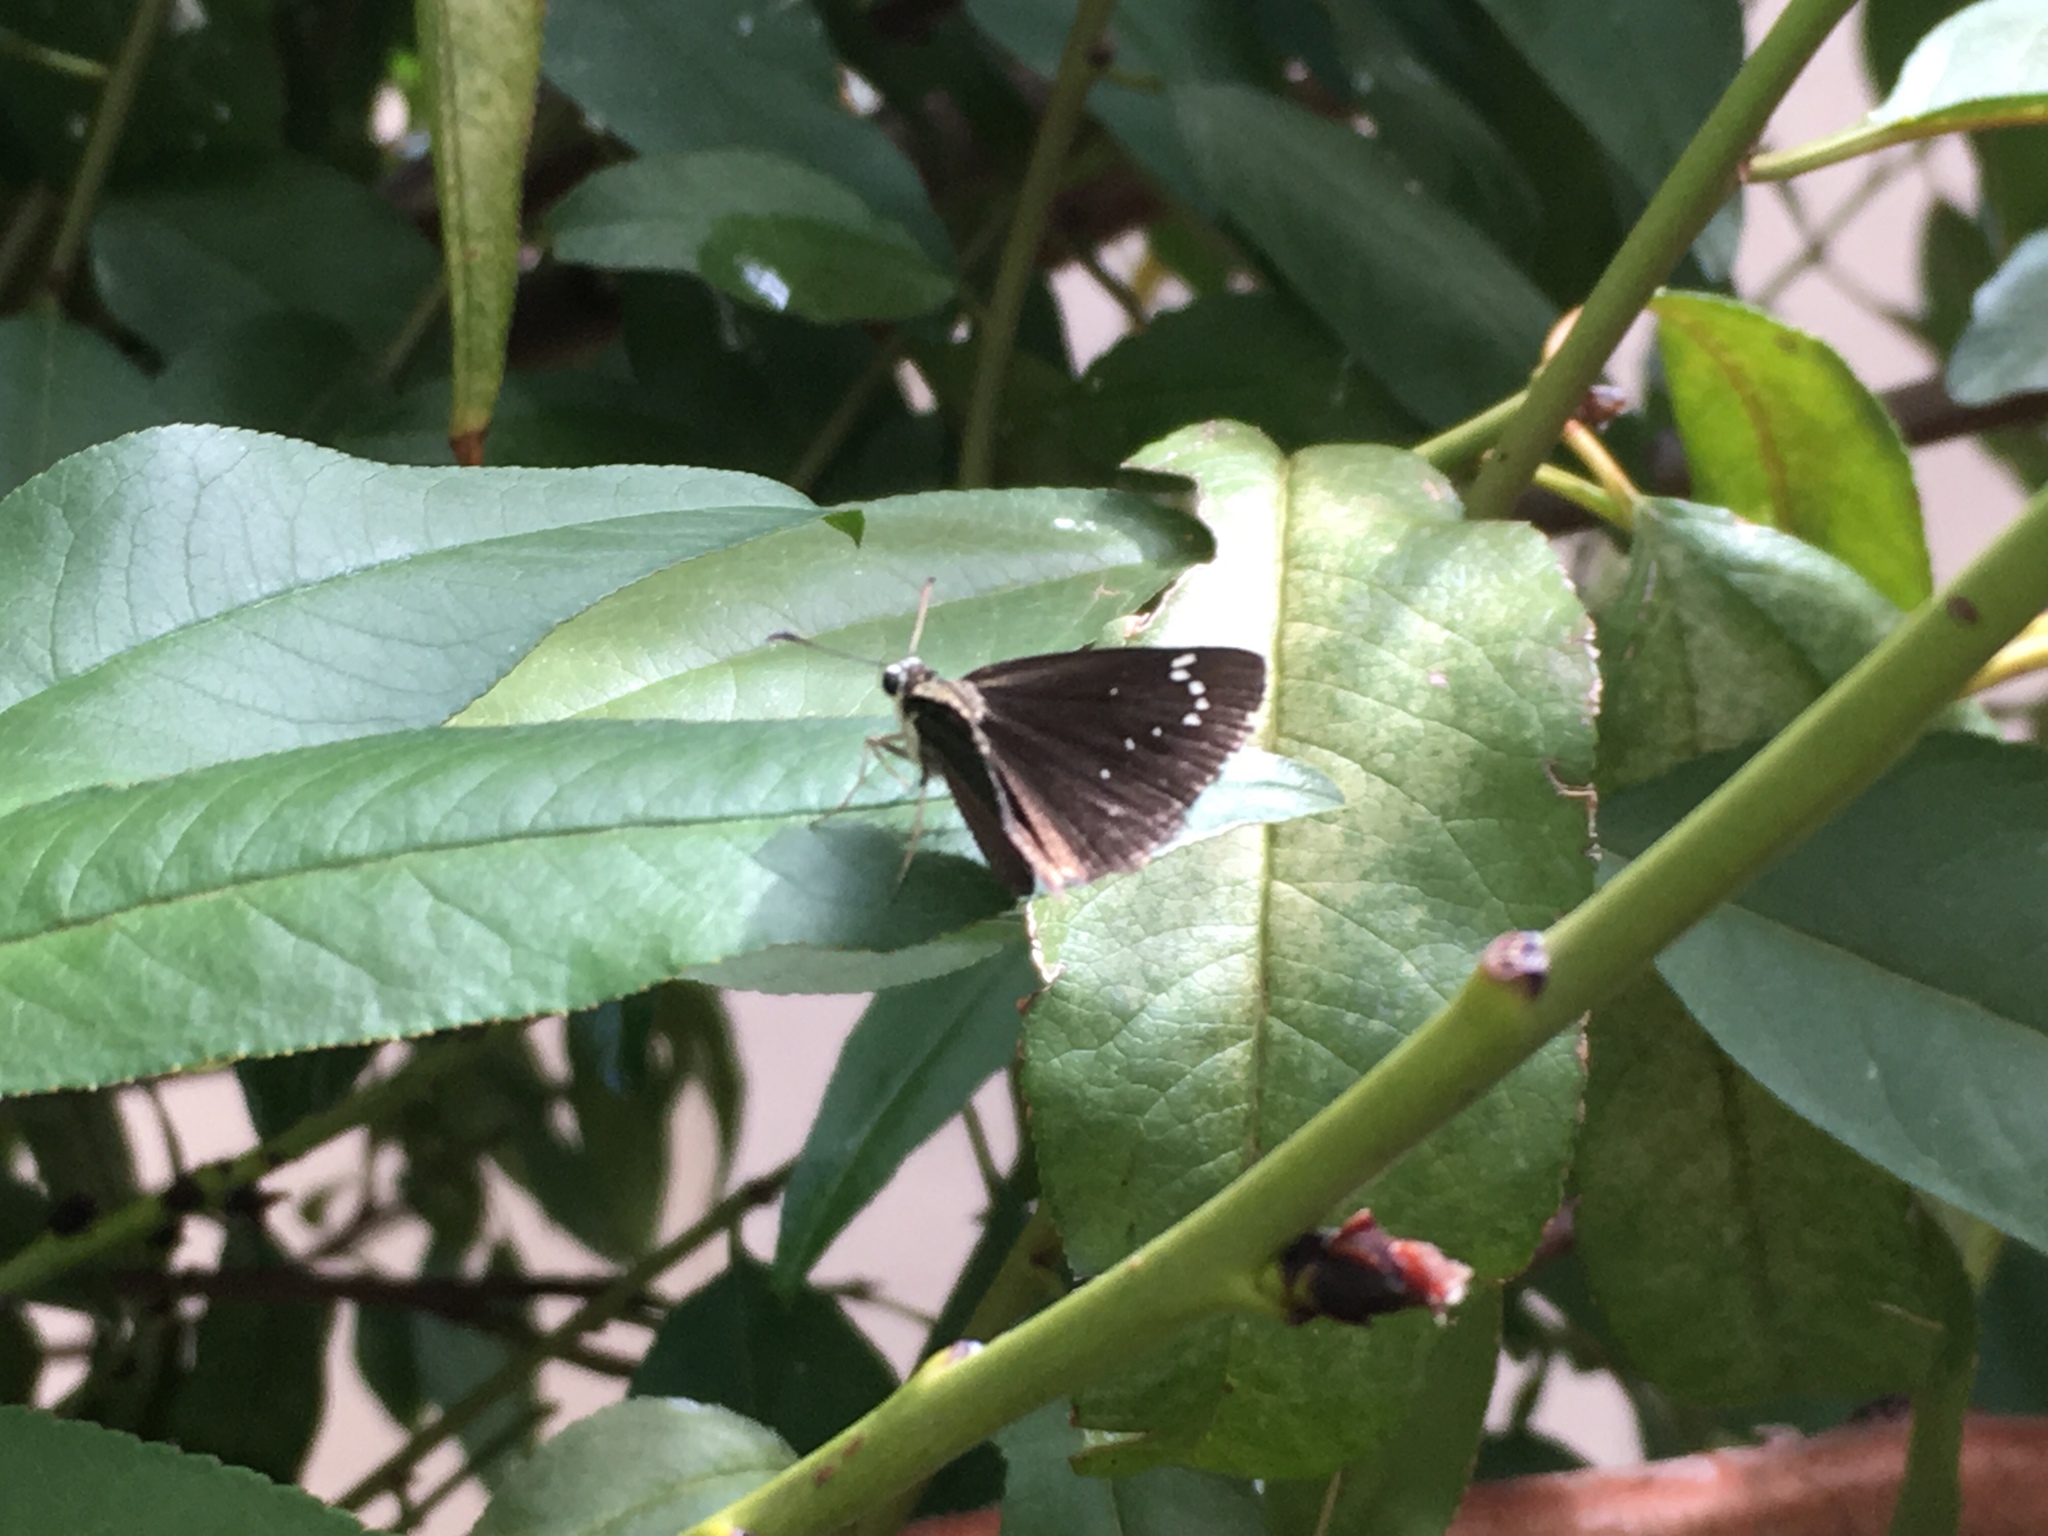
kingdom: Animalia
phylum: Arthropoda
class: Insecta
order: Lepidoptera
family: Hesperiidae
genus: Pholisora
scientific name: Pholisora catullus
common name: Common sootywing
